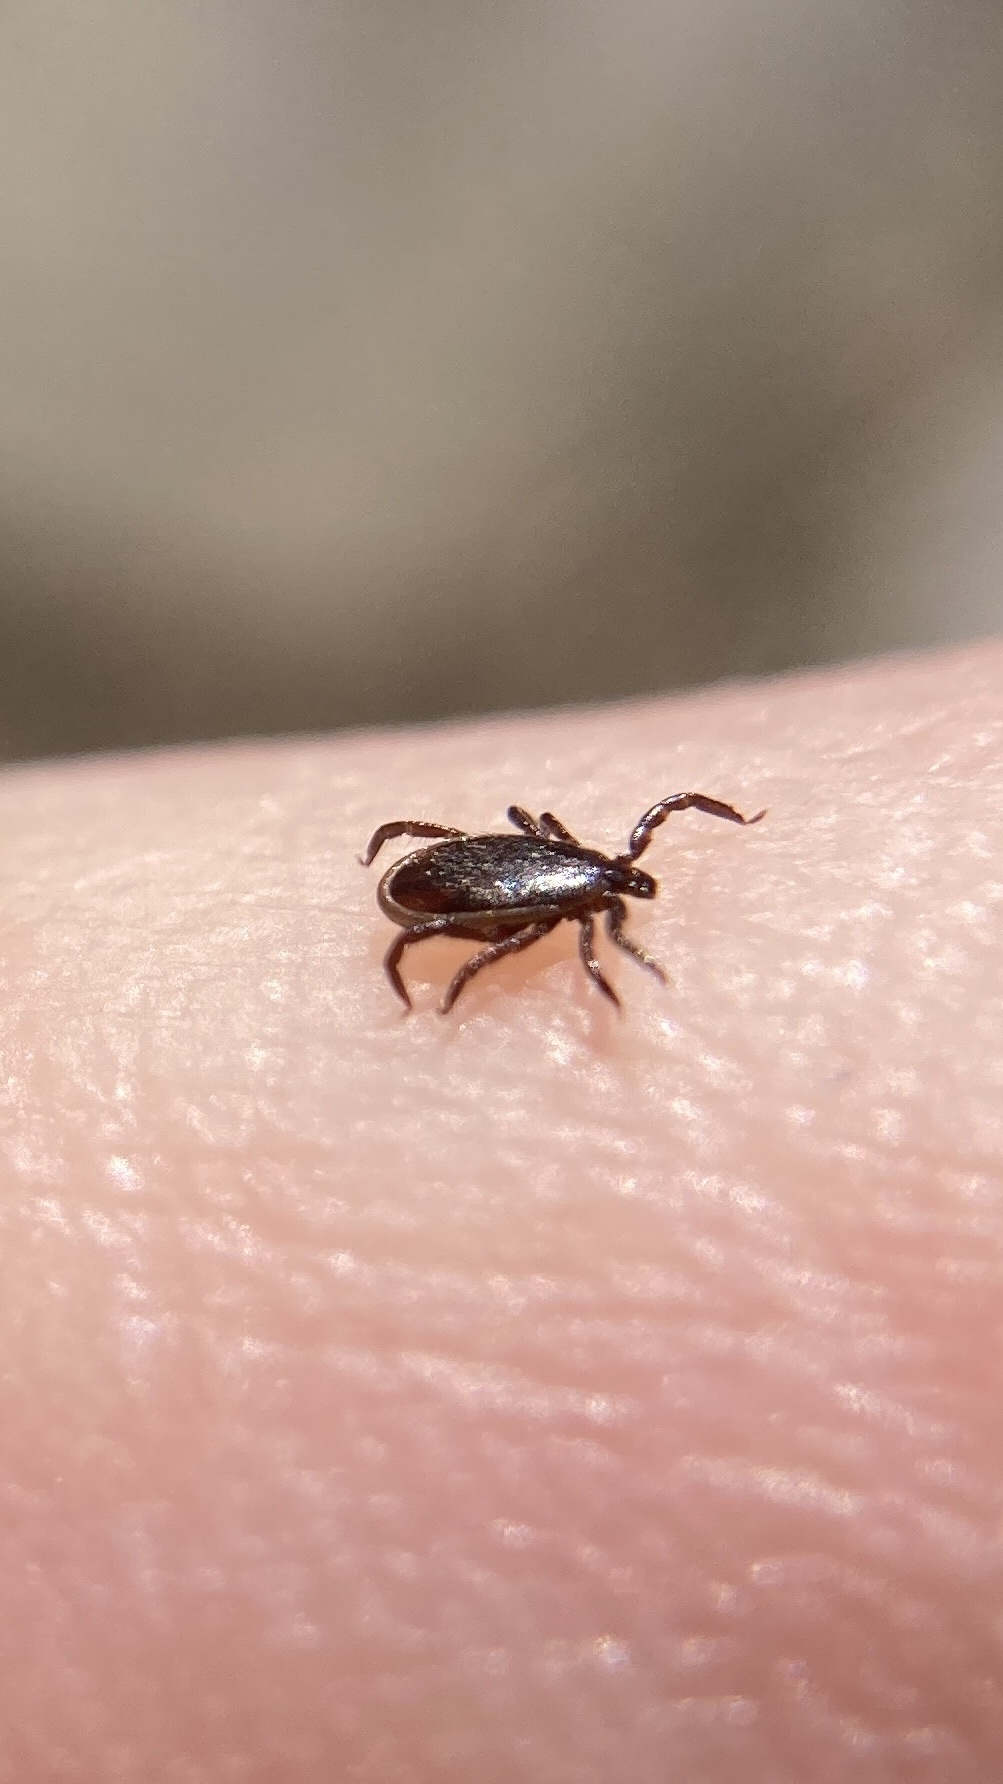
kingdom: Animalia
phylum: Arthropoda
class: Arachnida
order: Ixodida
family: Ixodidae
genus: Ixodes
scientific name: Ixodes scapularis
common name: Black legged tick
